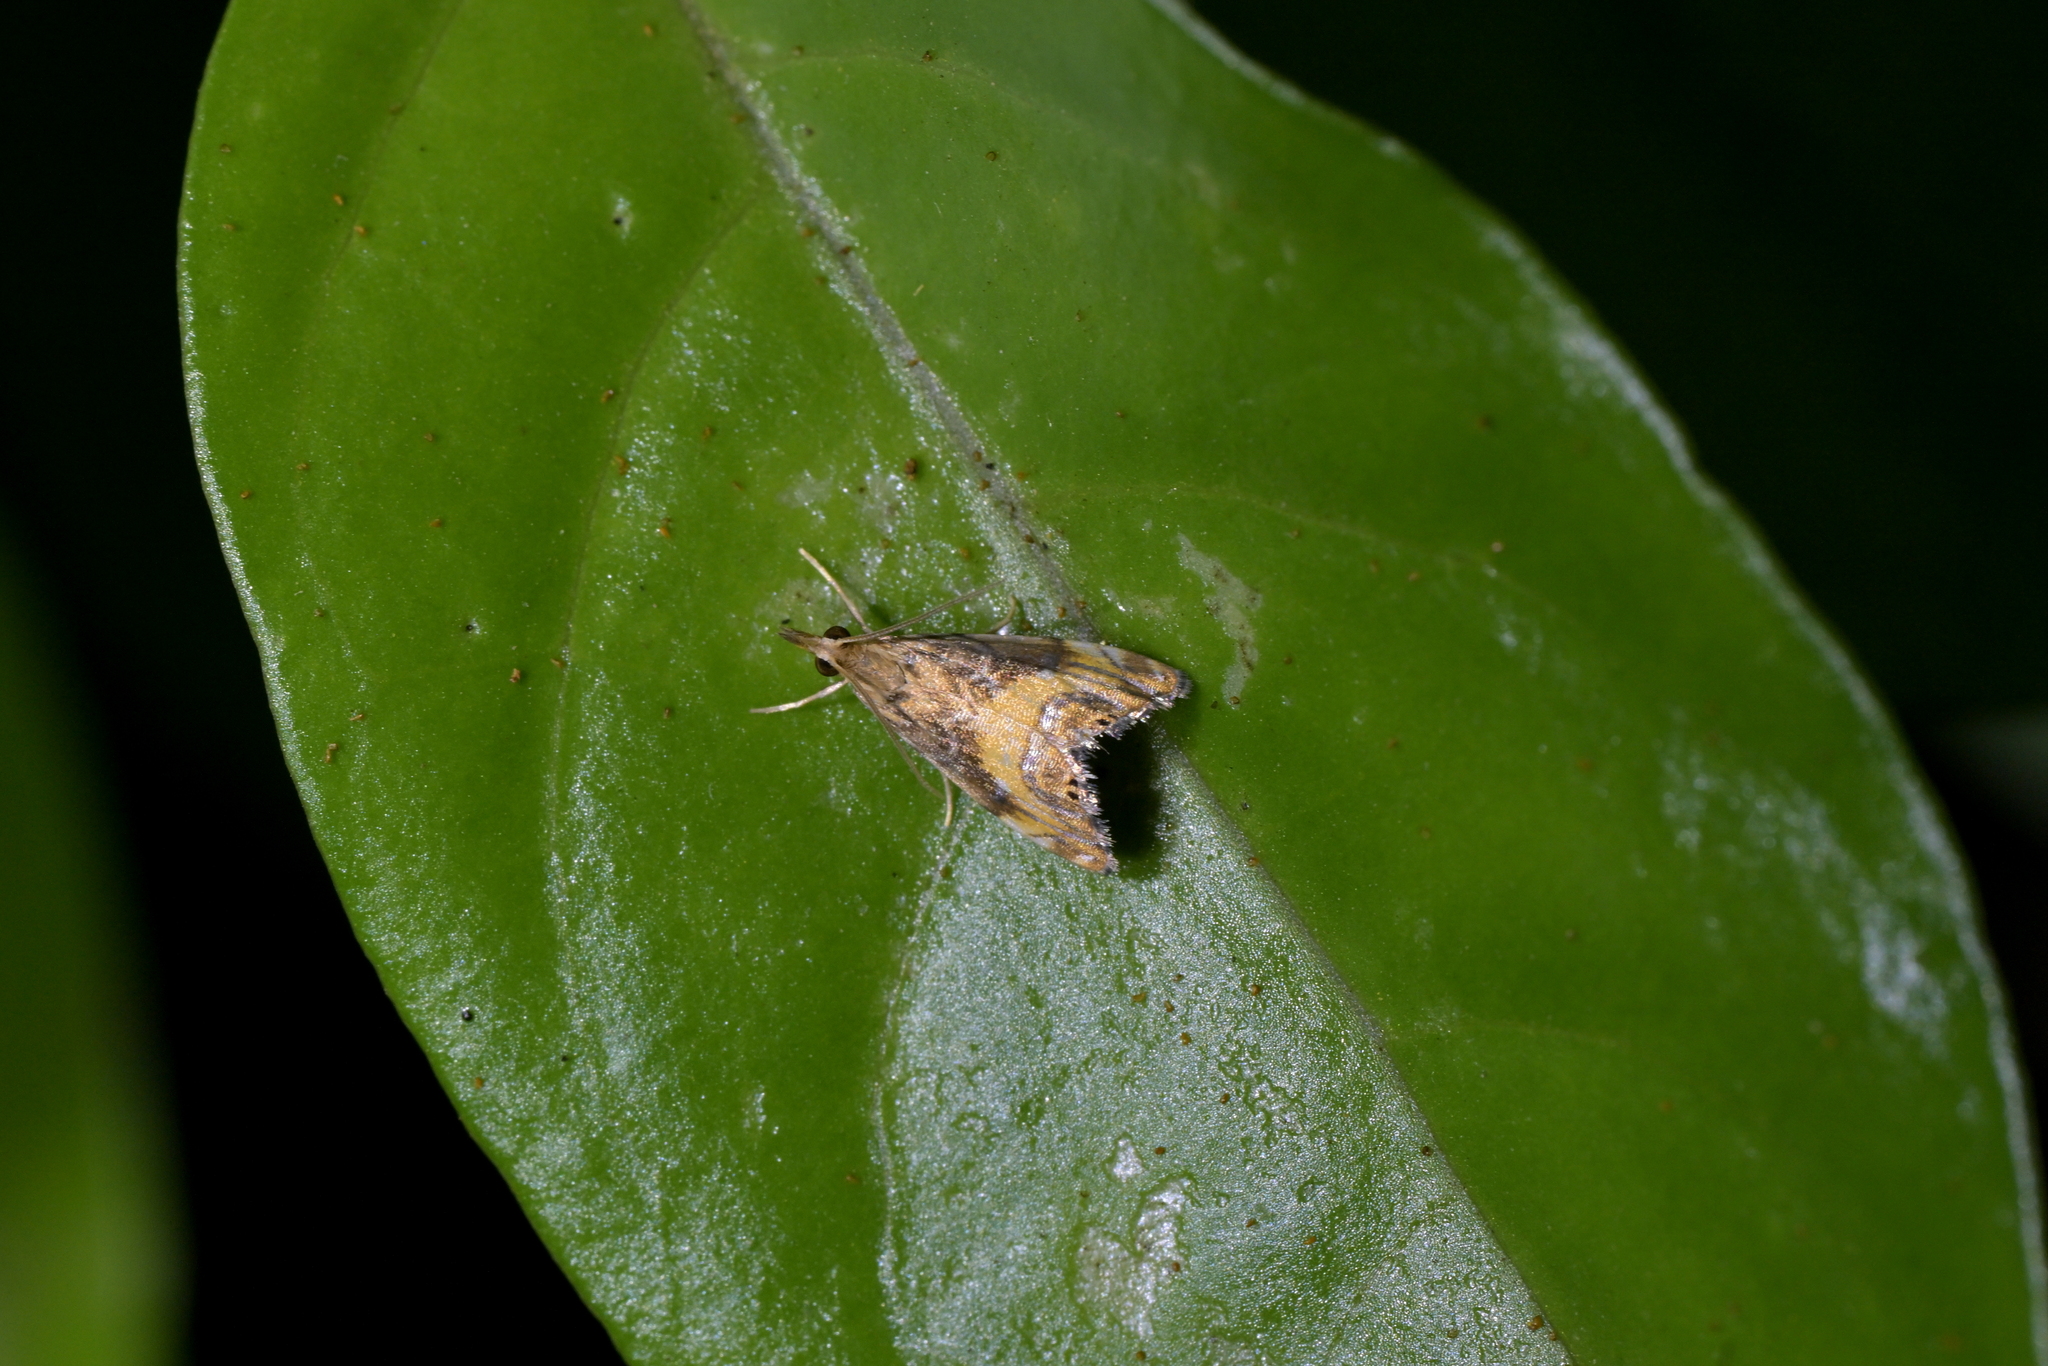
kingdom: Animalia
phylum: Arthropoda
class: Insecta
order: Lepidoptera
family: Crambidae
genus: Glaucocharis
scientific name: Glaucocharis chrysochyta
